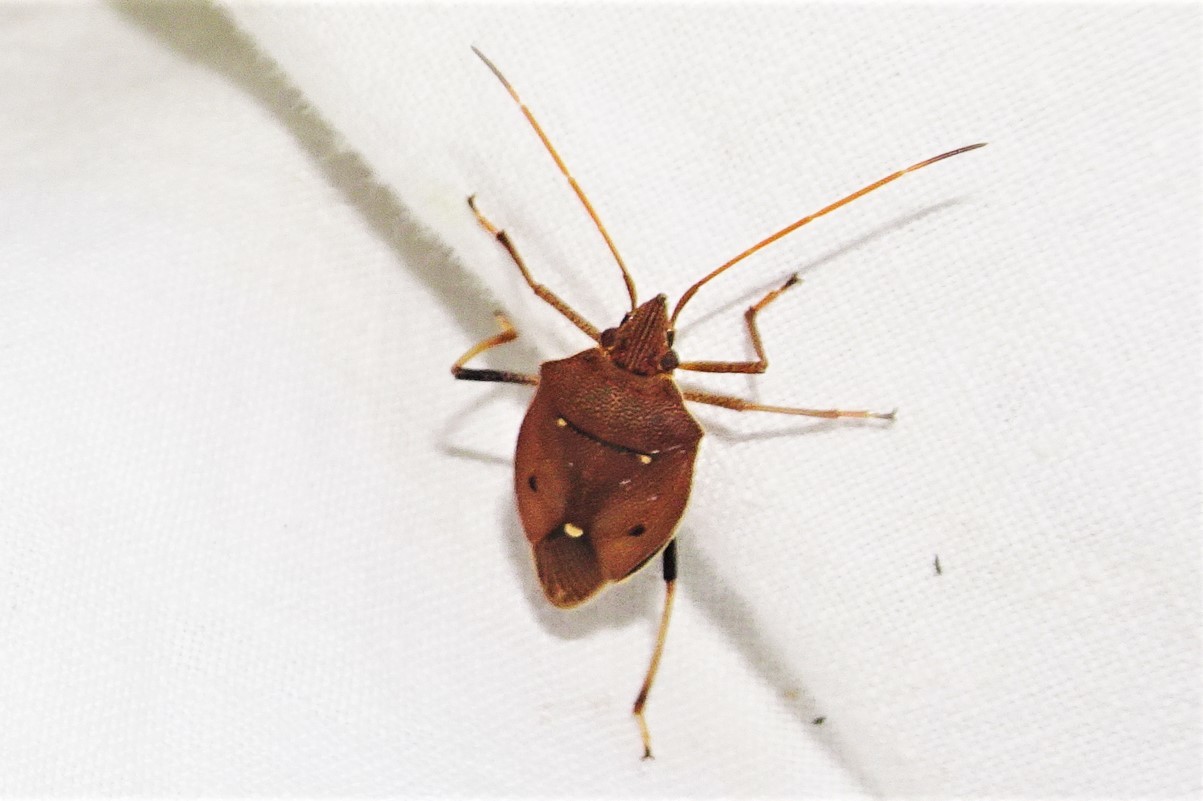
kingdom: Animalia
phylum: Arthropoda
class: Insecta
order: Hemiptera
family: Pentatomidae
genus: Poecilometis
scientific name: Poecilometis
